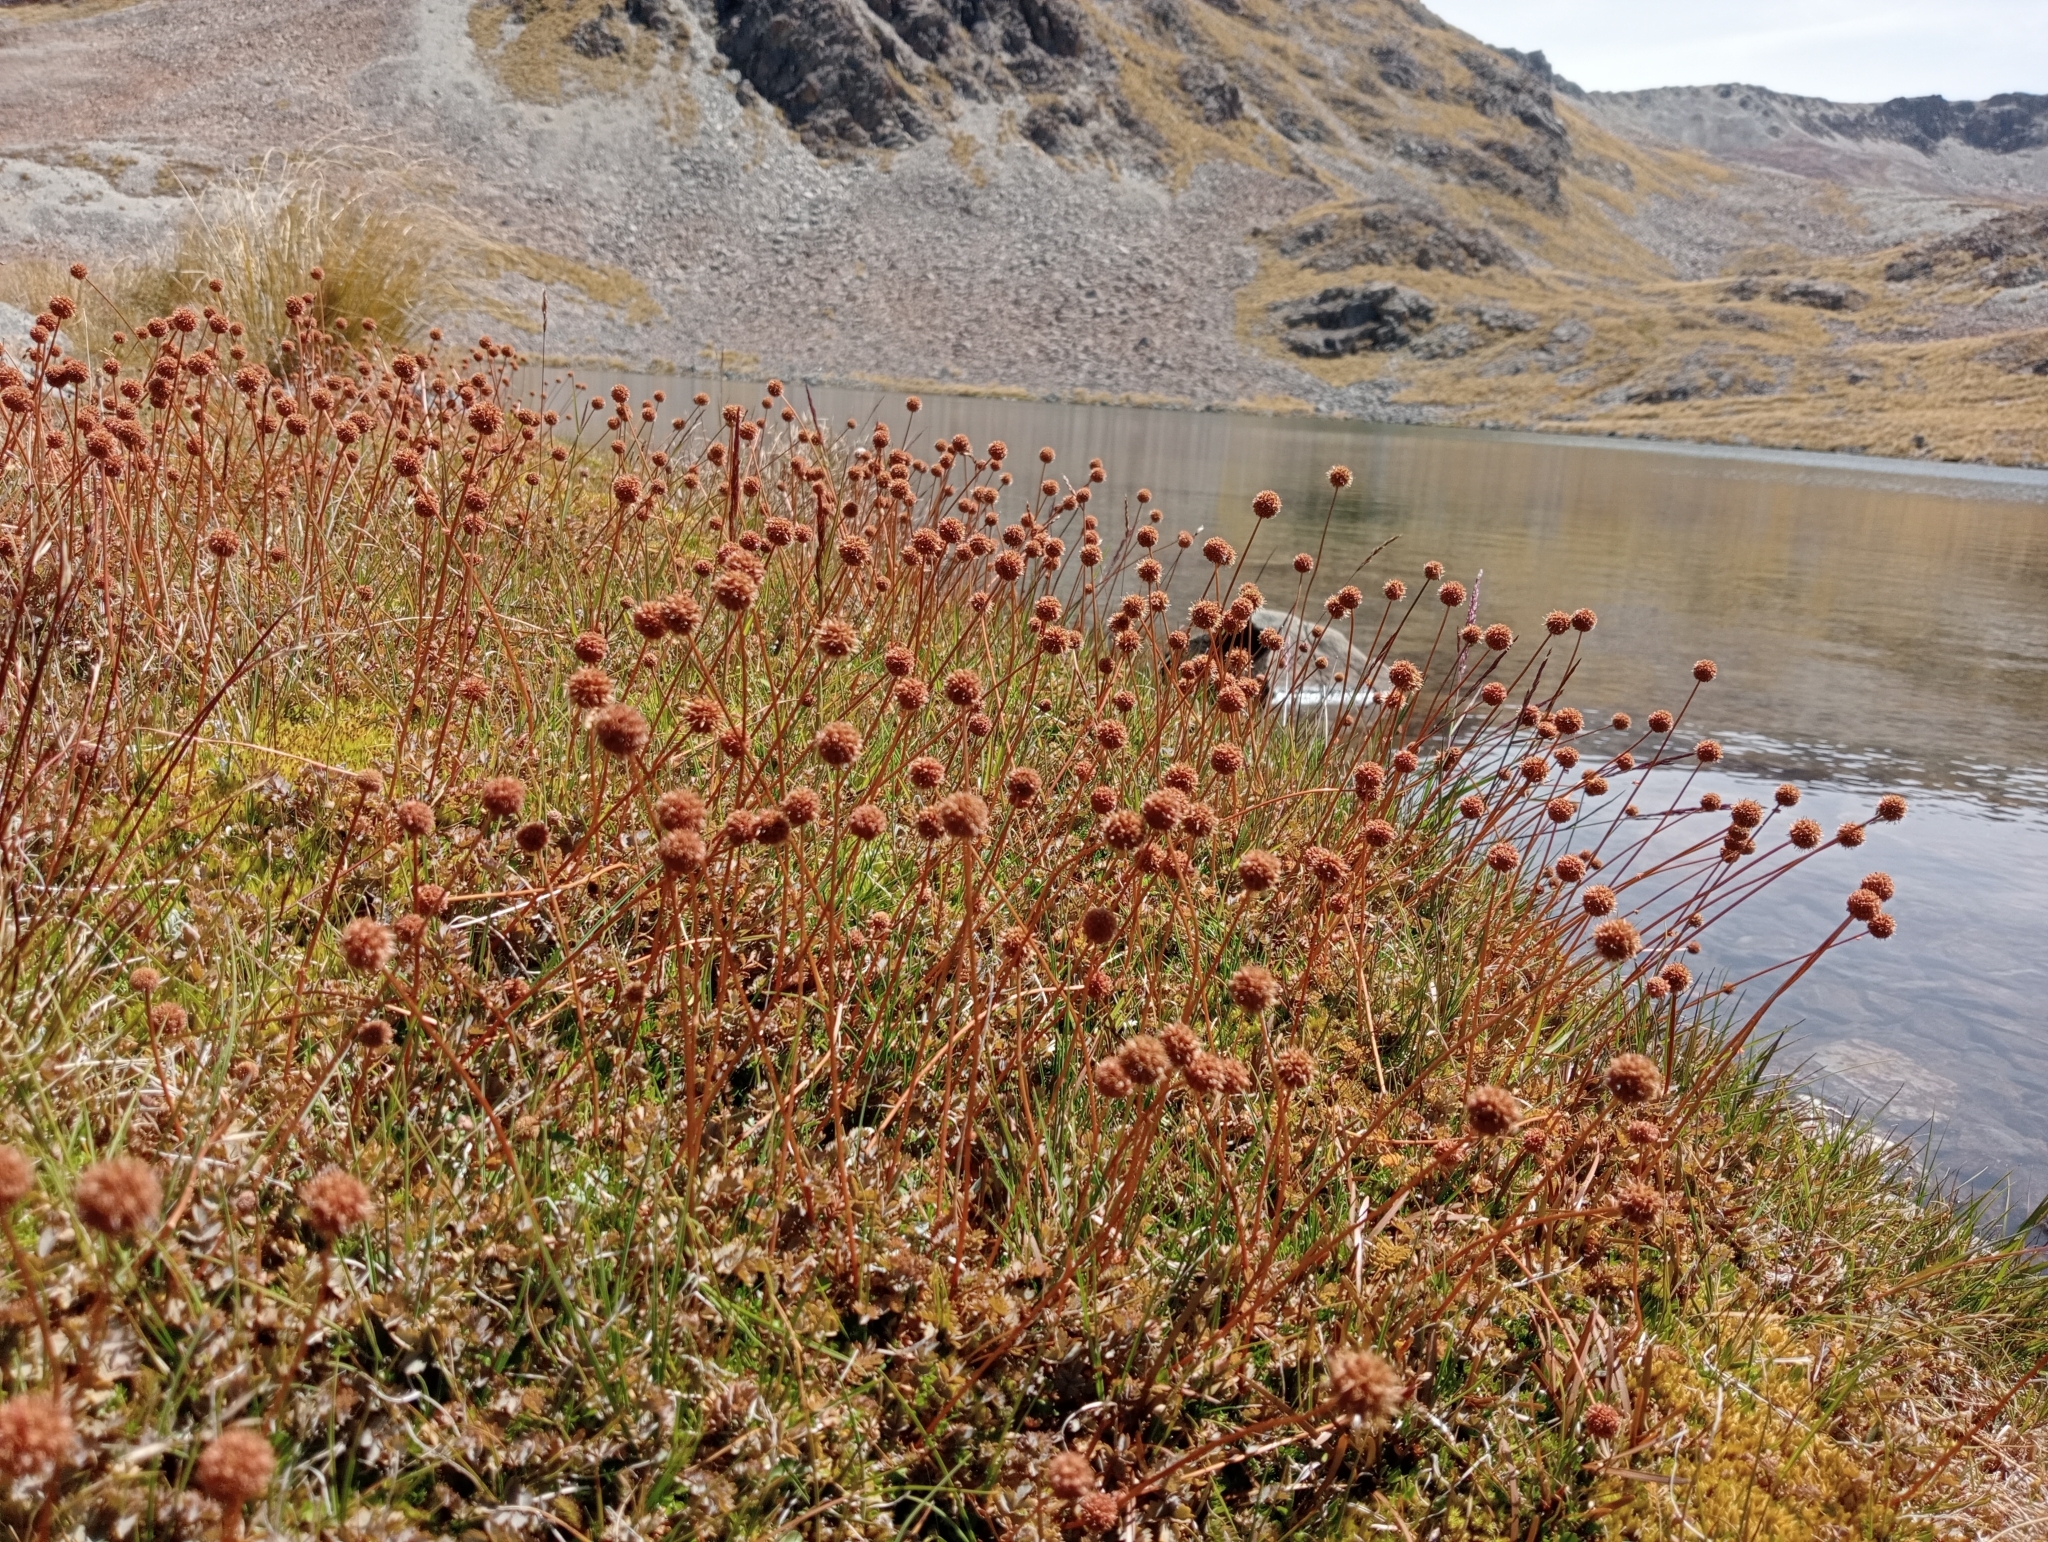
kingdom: Plantae
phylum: Tracheophyta
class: Magnoliopsida
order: Rosales
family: Rosaceae
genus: Acaena
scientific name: Acaena saccaticupula
